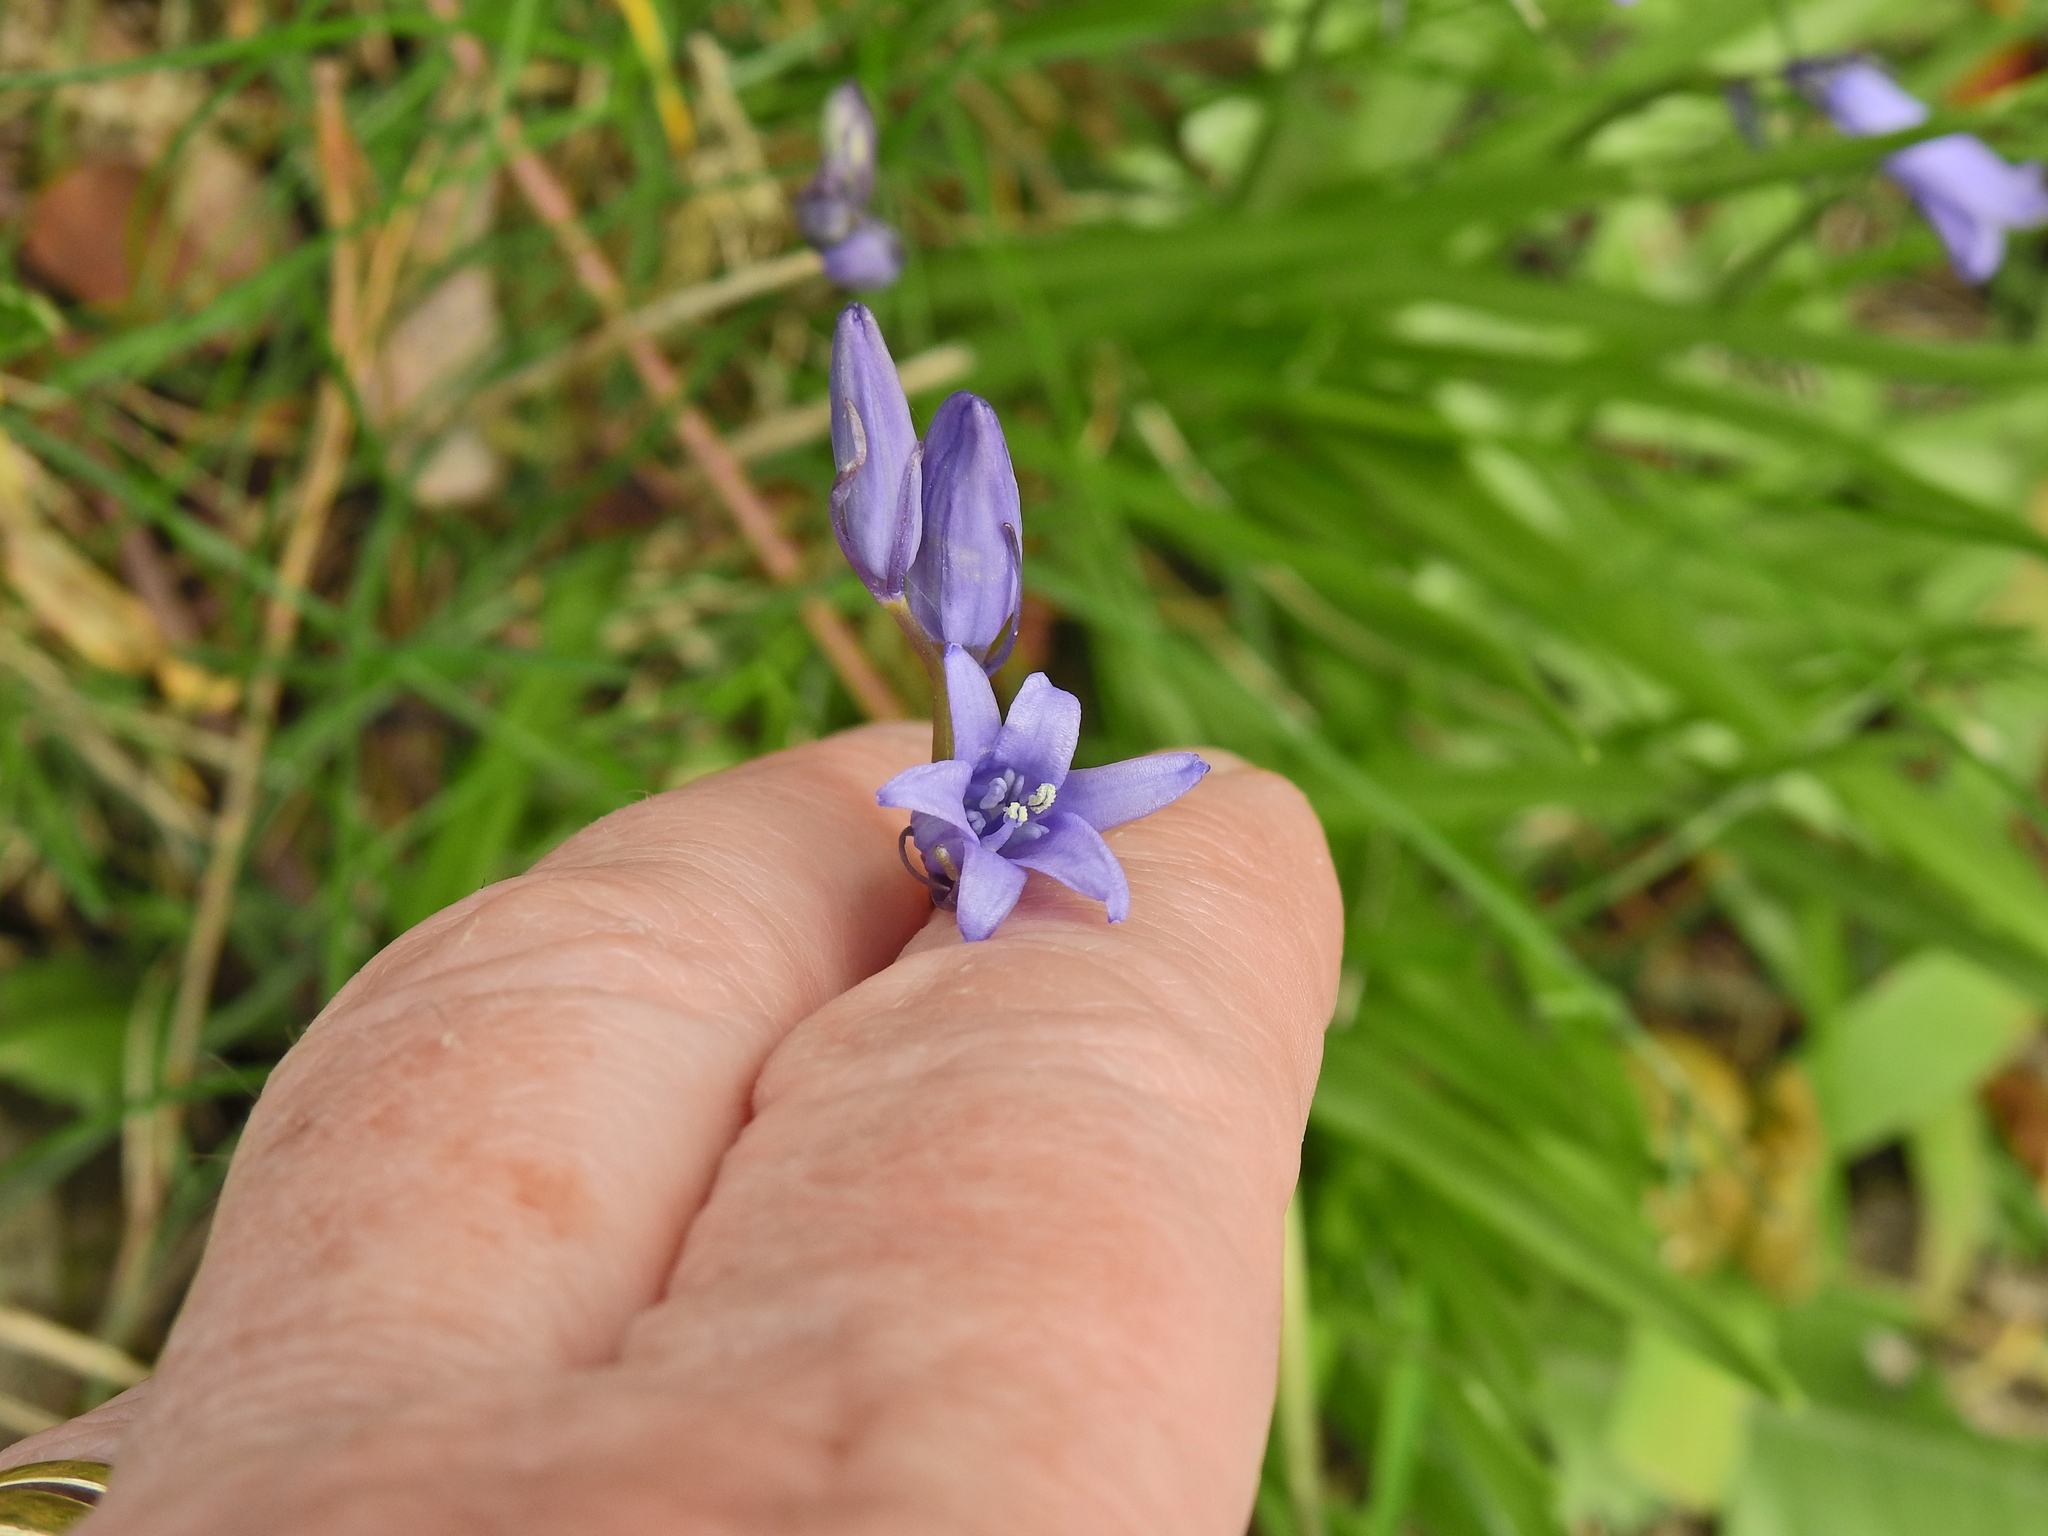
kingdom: Plantae
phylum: Tracheophyta
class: Liliopsida
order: Asparagales
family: Asparagaceae
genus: Hyacinthoides
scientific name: Hyacinthoides massartiana
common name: Hyacinthoides
